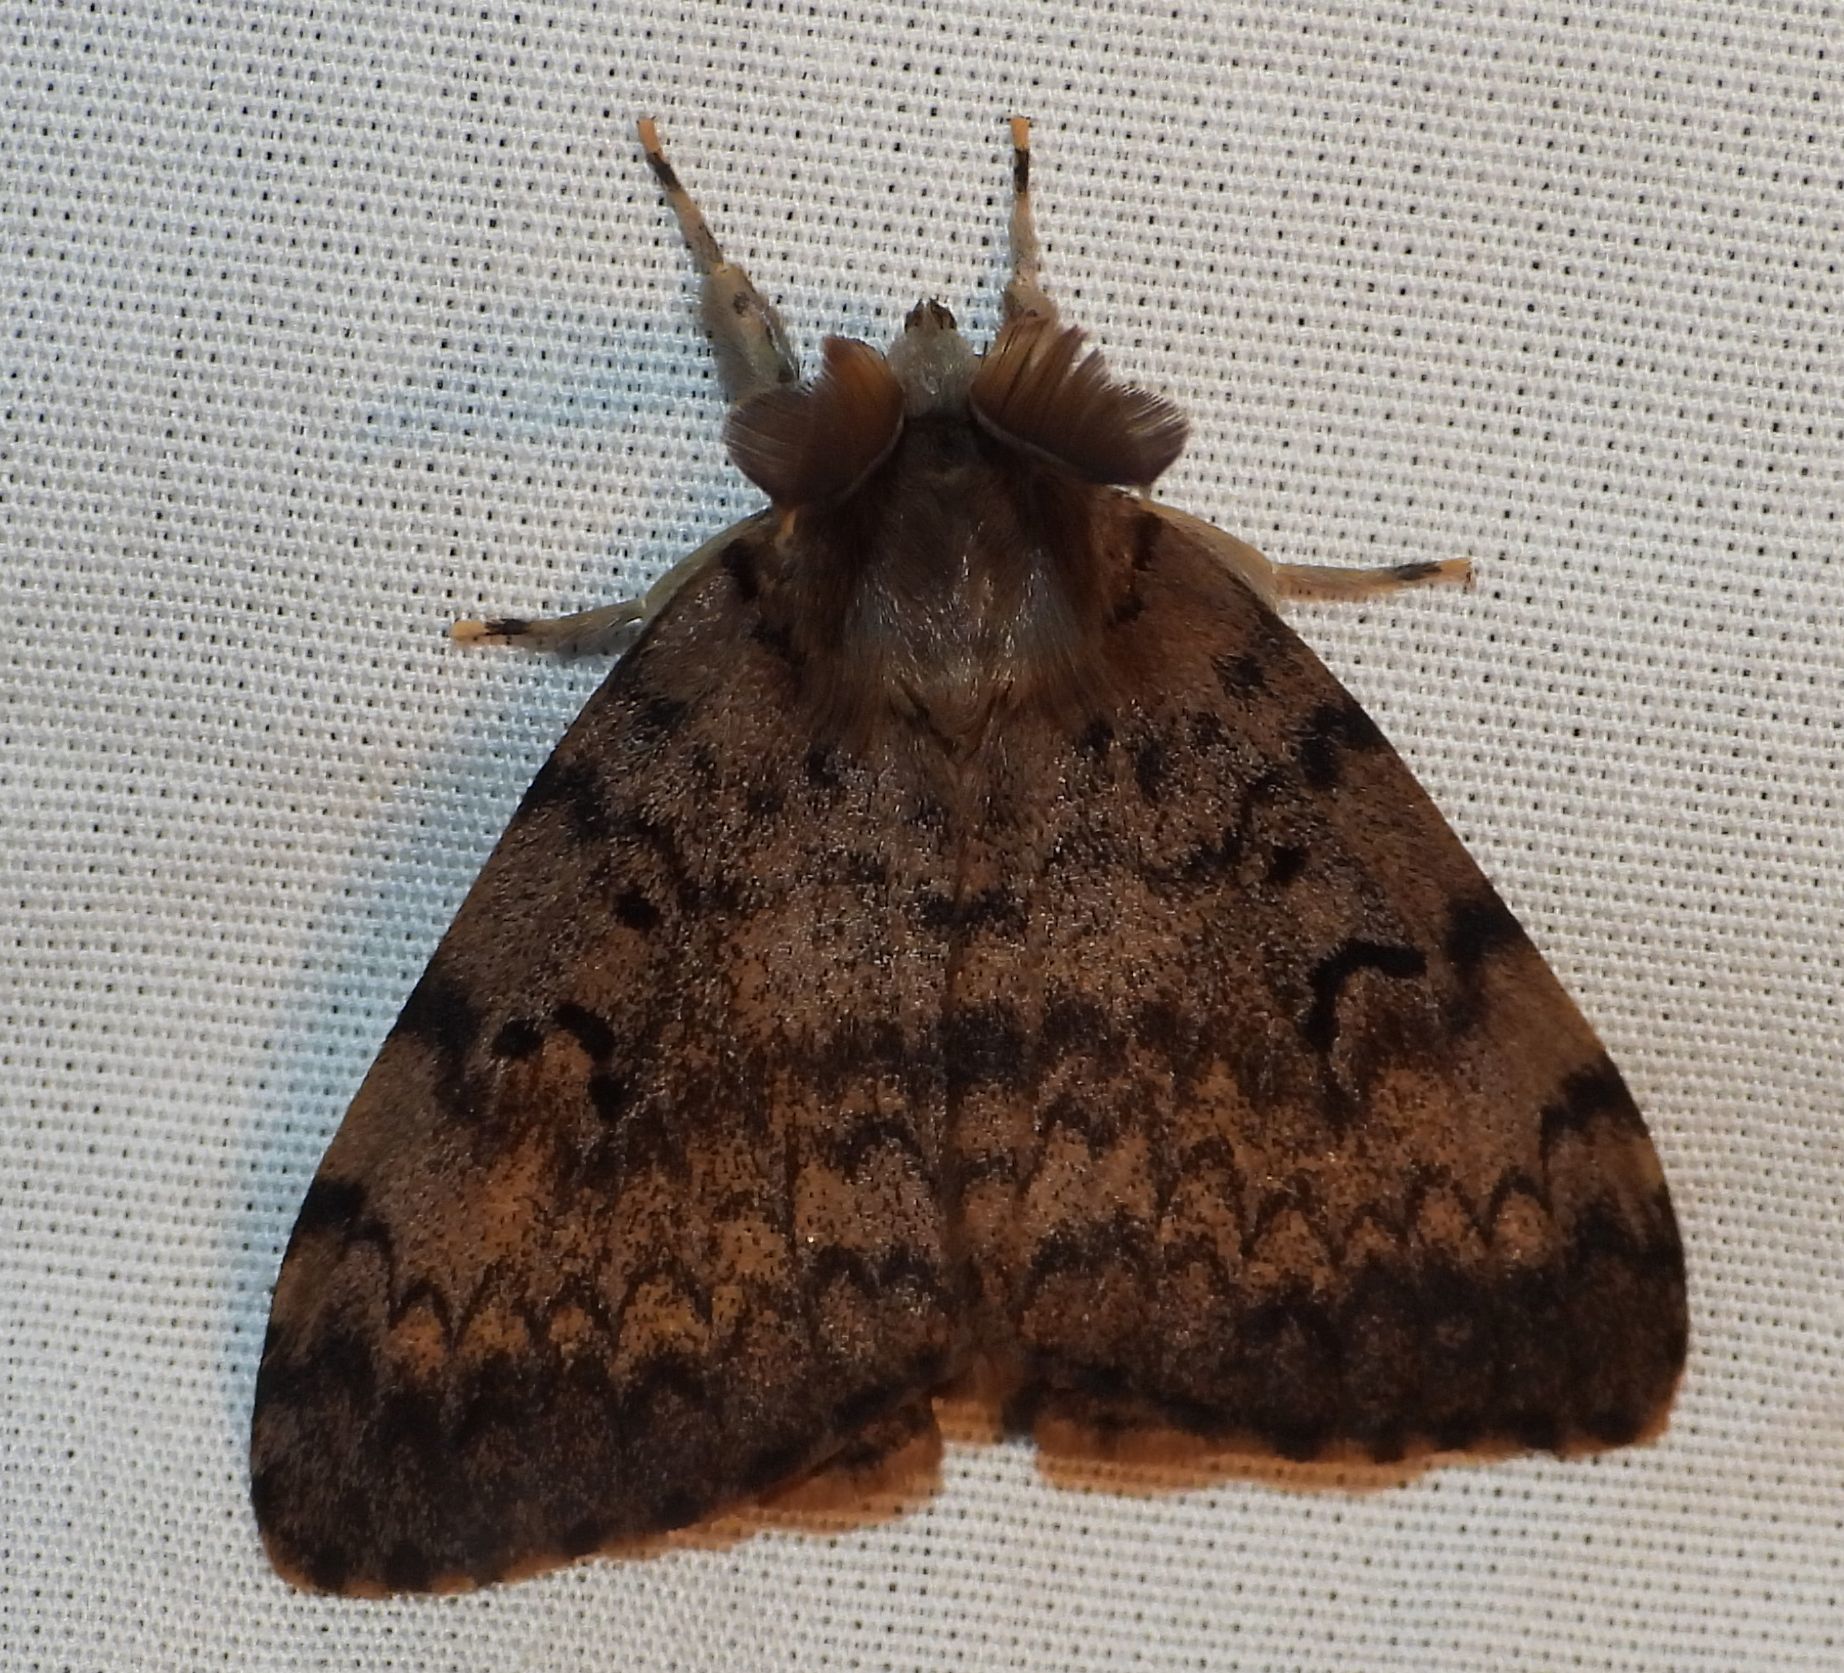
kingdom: Animalia
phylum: Arthropoda
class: Insecta
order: Lepidoptera
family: Erebidae
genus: Lymantria
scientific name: Lymantria dispar
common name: Gypsy moth
